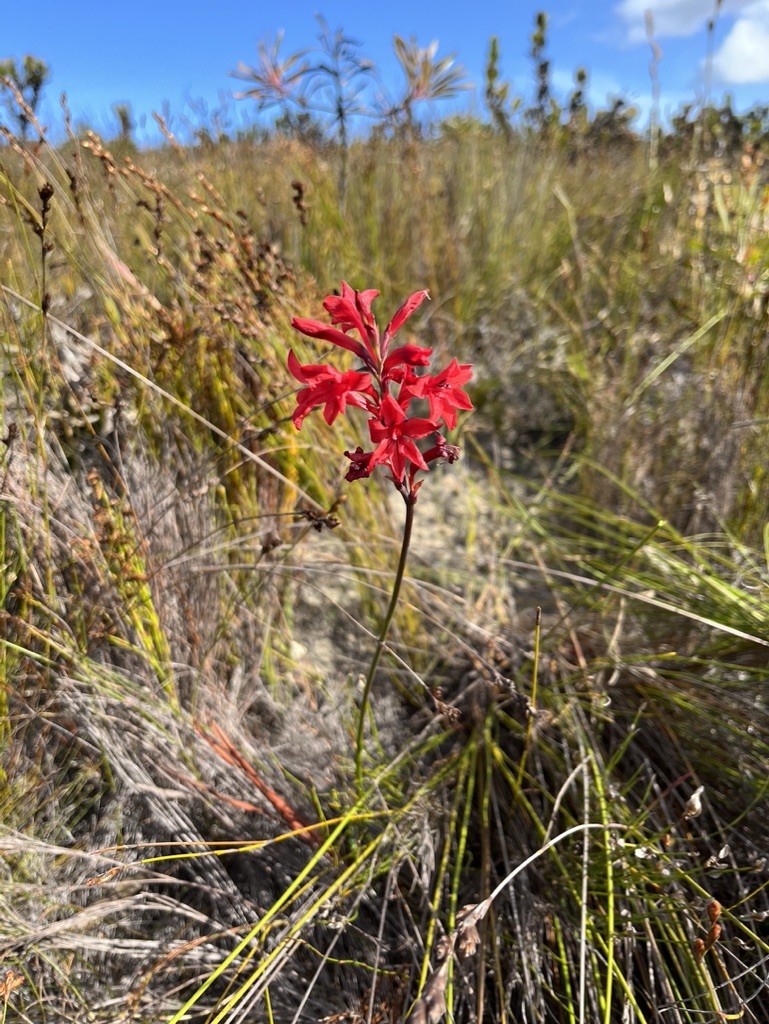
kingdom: Plantae
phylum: Tracheophyta
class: Liliopsida
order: Asparagales
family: Iridaceae
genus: Tritoniopsis
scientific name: Tritoniopsis pulchra
